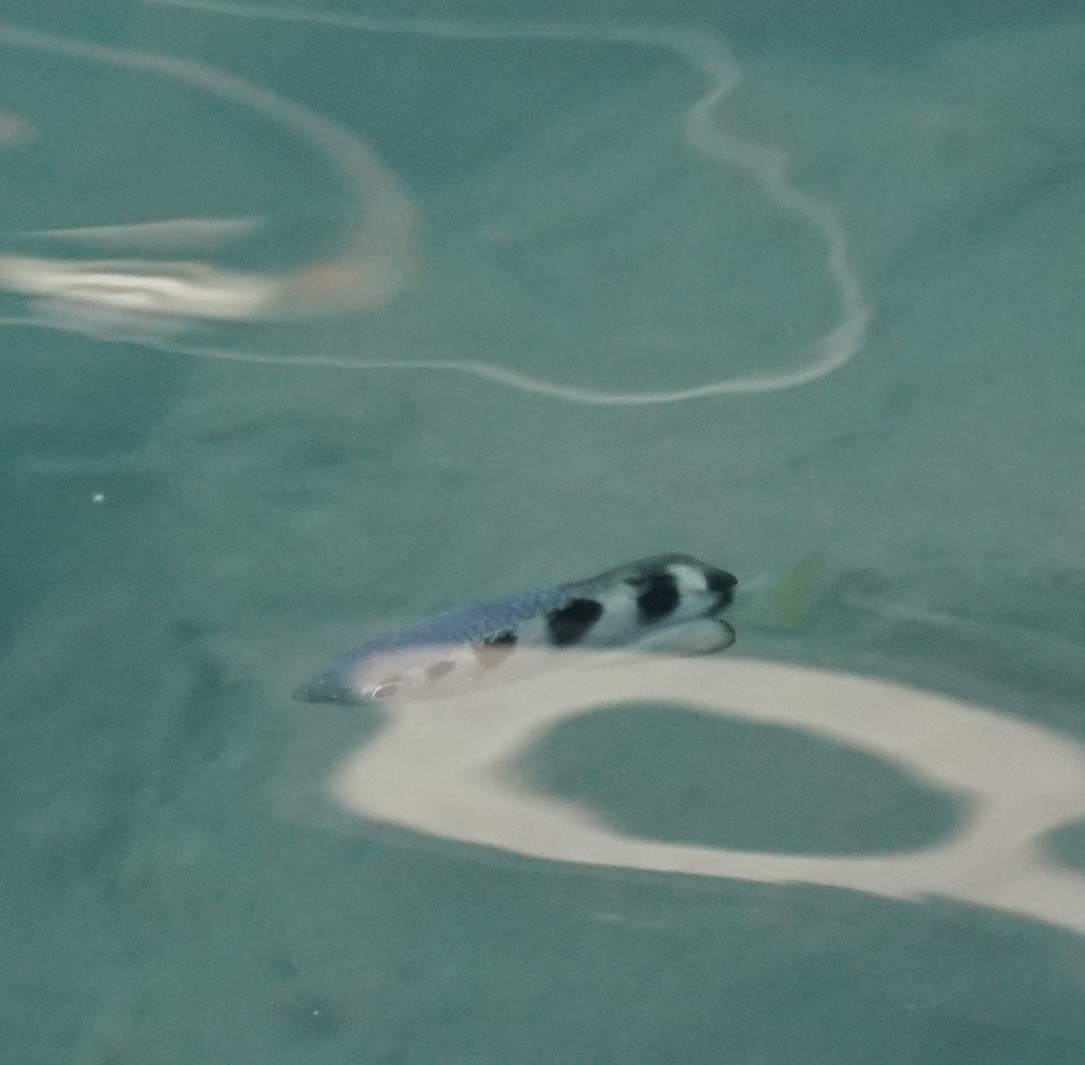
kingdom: Animalia
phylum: Chordata
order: Perciformes
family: Toxotidae
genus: Toxotes
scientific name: Toxotes jaculatrix
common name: Banded archerfish
